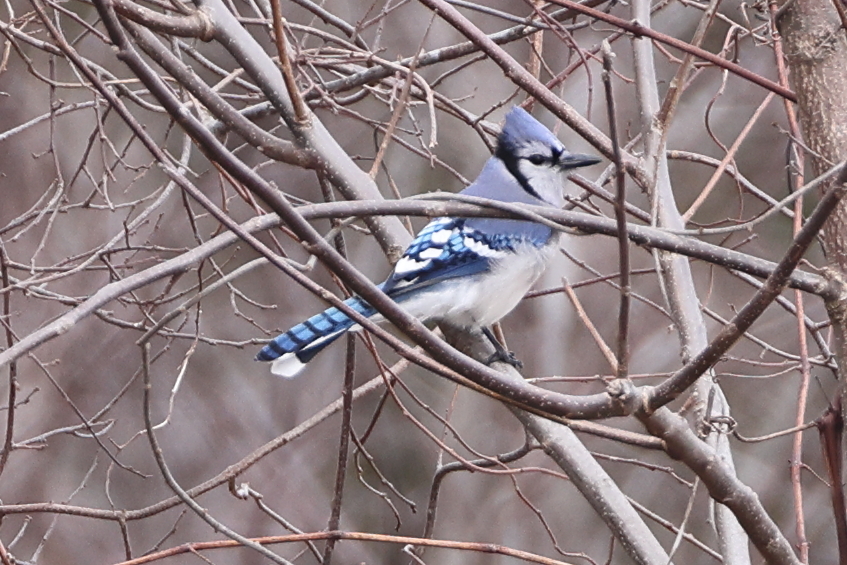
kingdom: Animalia
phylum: Chordata
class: Aves
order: Passeriformes
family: Corvidae
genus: Cyanocitta
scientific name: Cyanocitta cristata
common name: Blue jay
